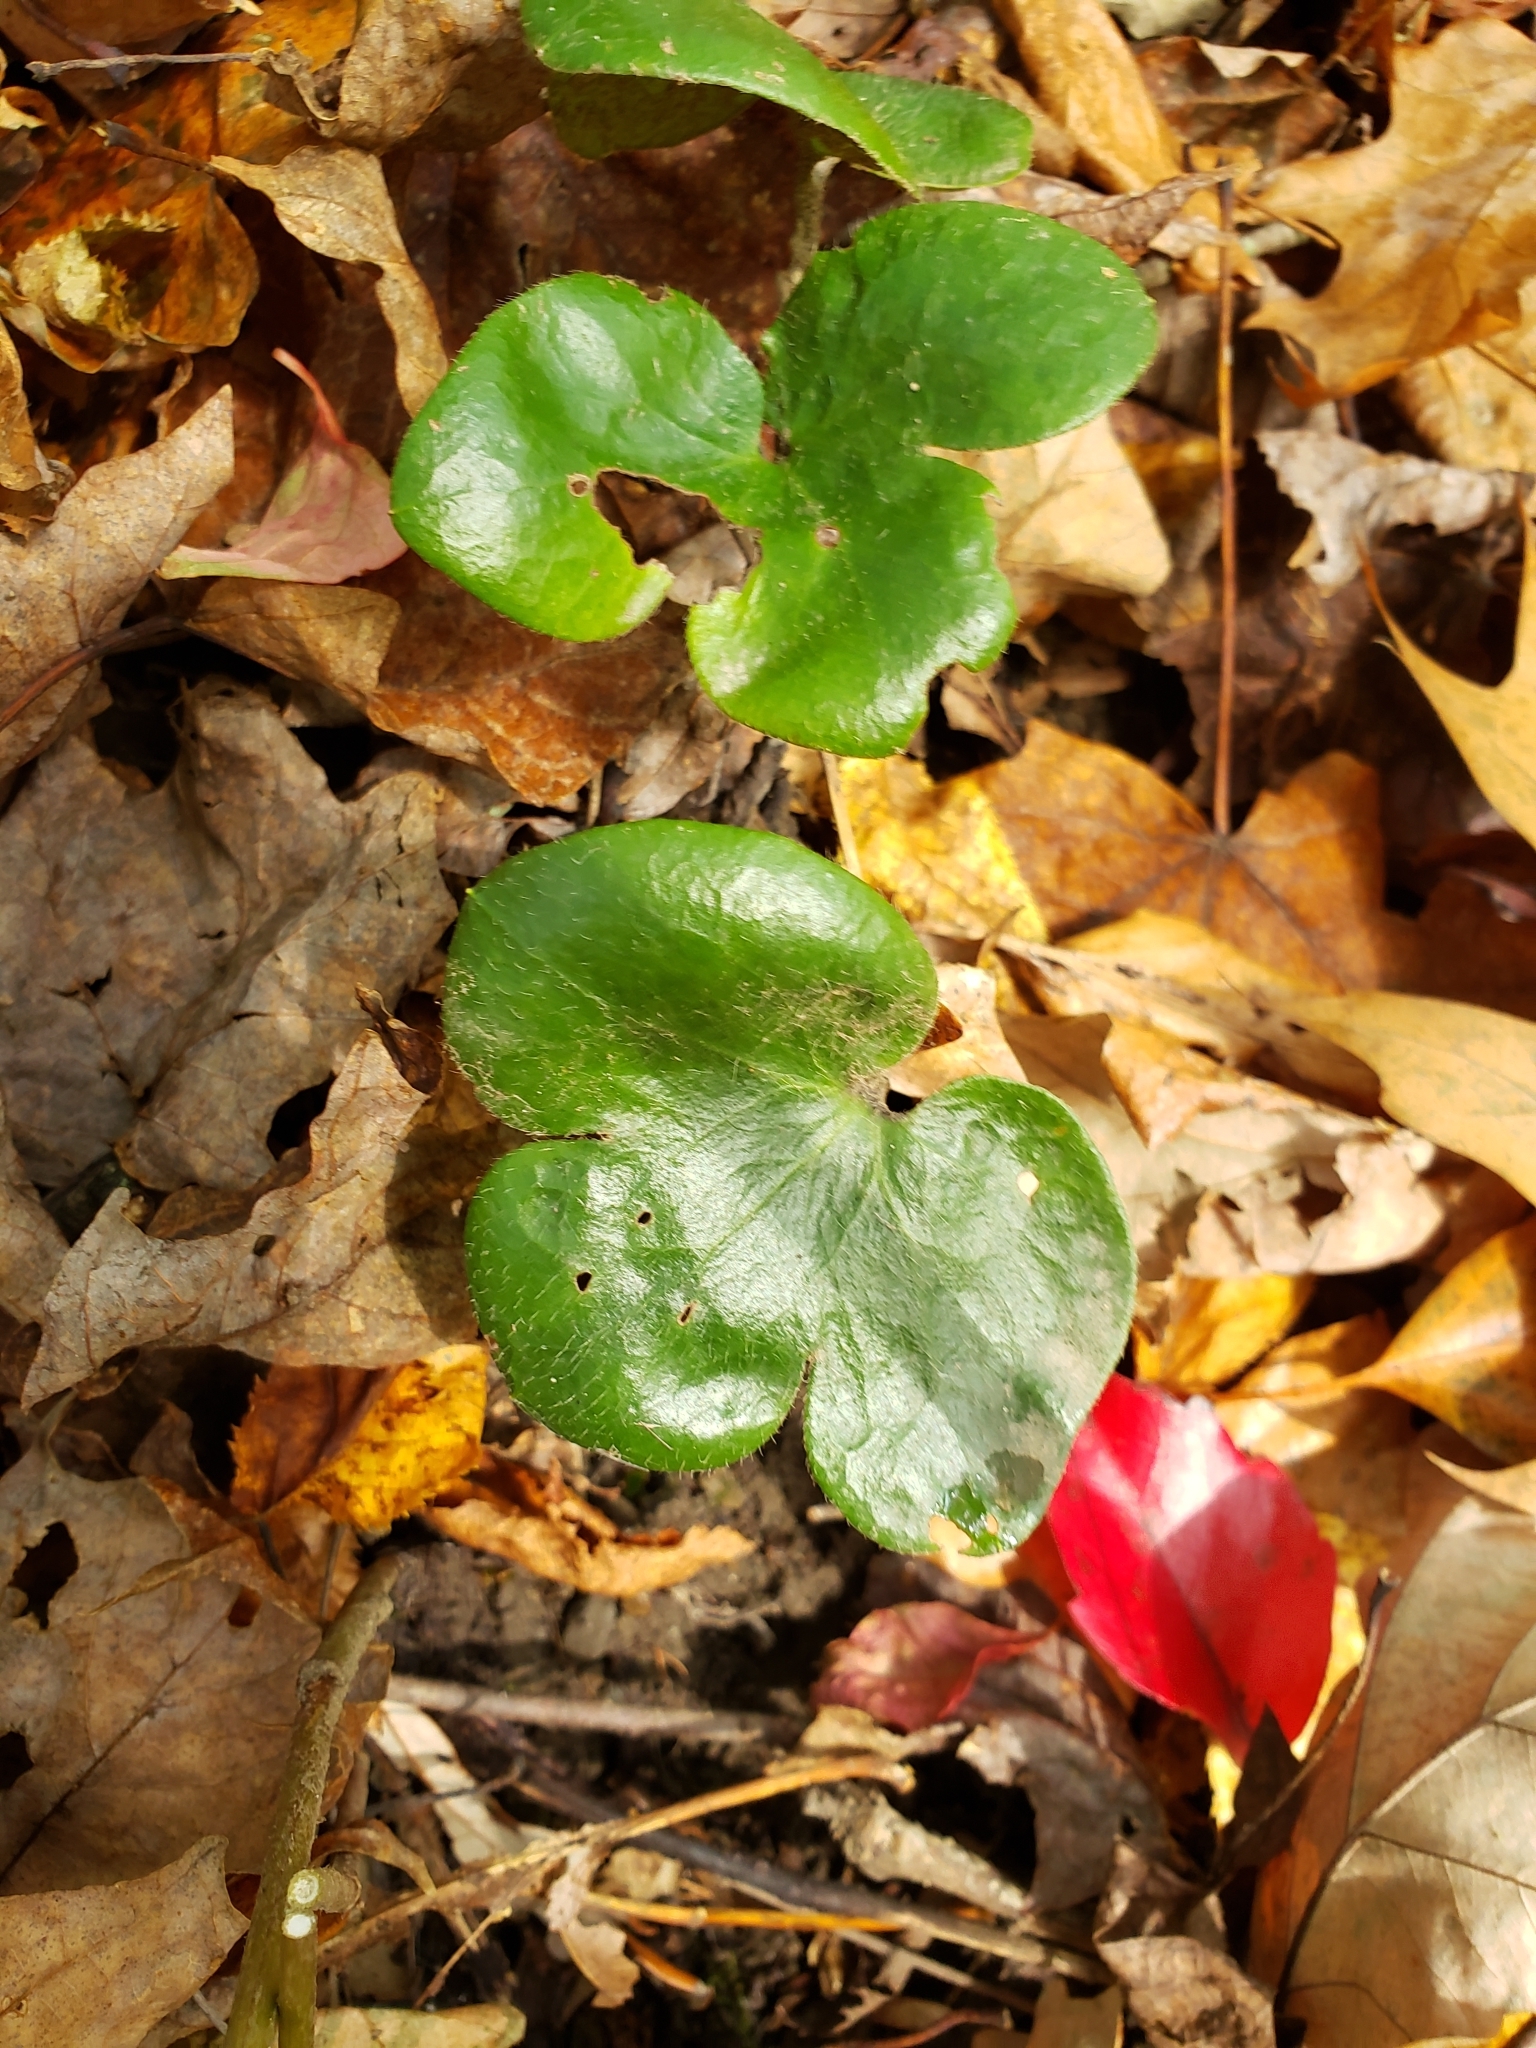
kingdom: Plantae
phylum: Tracheophyta
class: Magnoliopsida
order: Ranunculales
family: Ranunculaceae
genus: Hepatica
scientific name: Hepatica americana
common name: American hepatica
